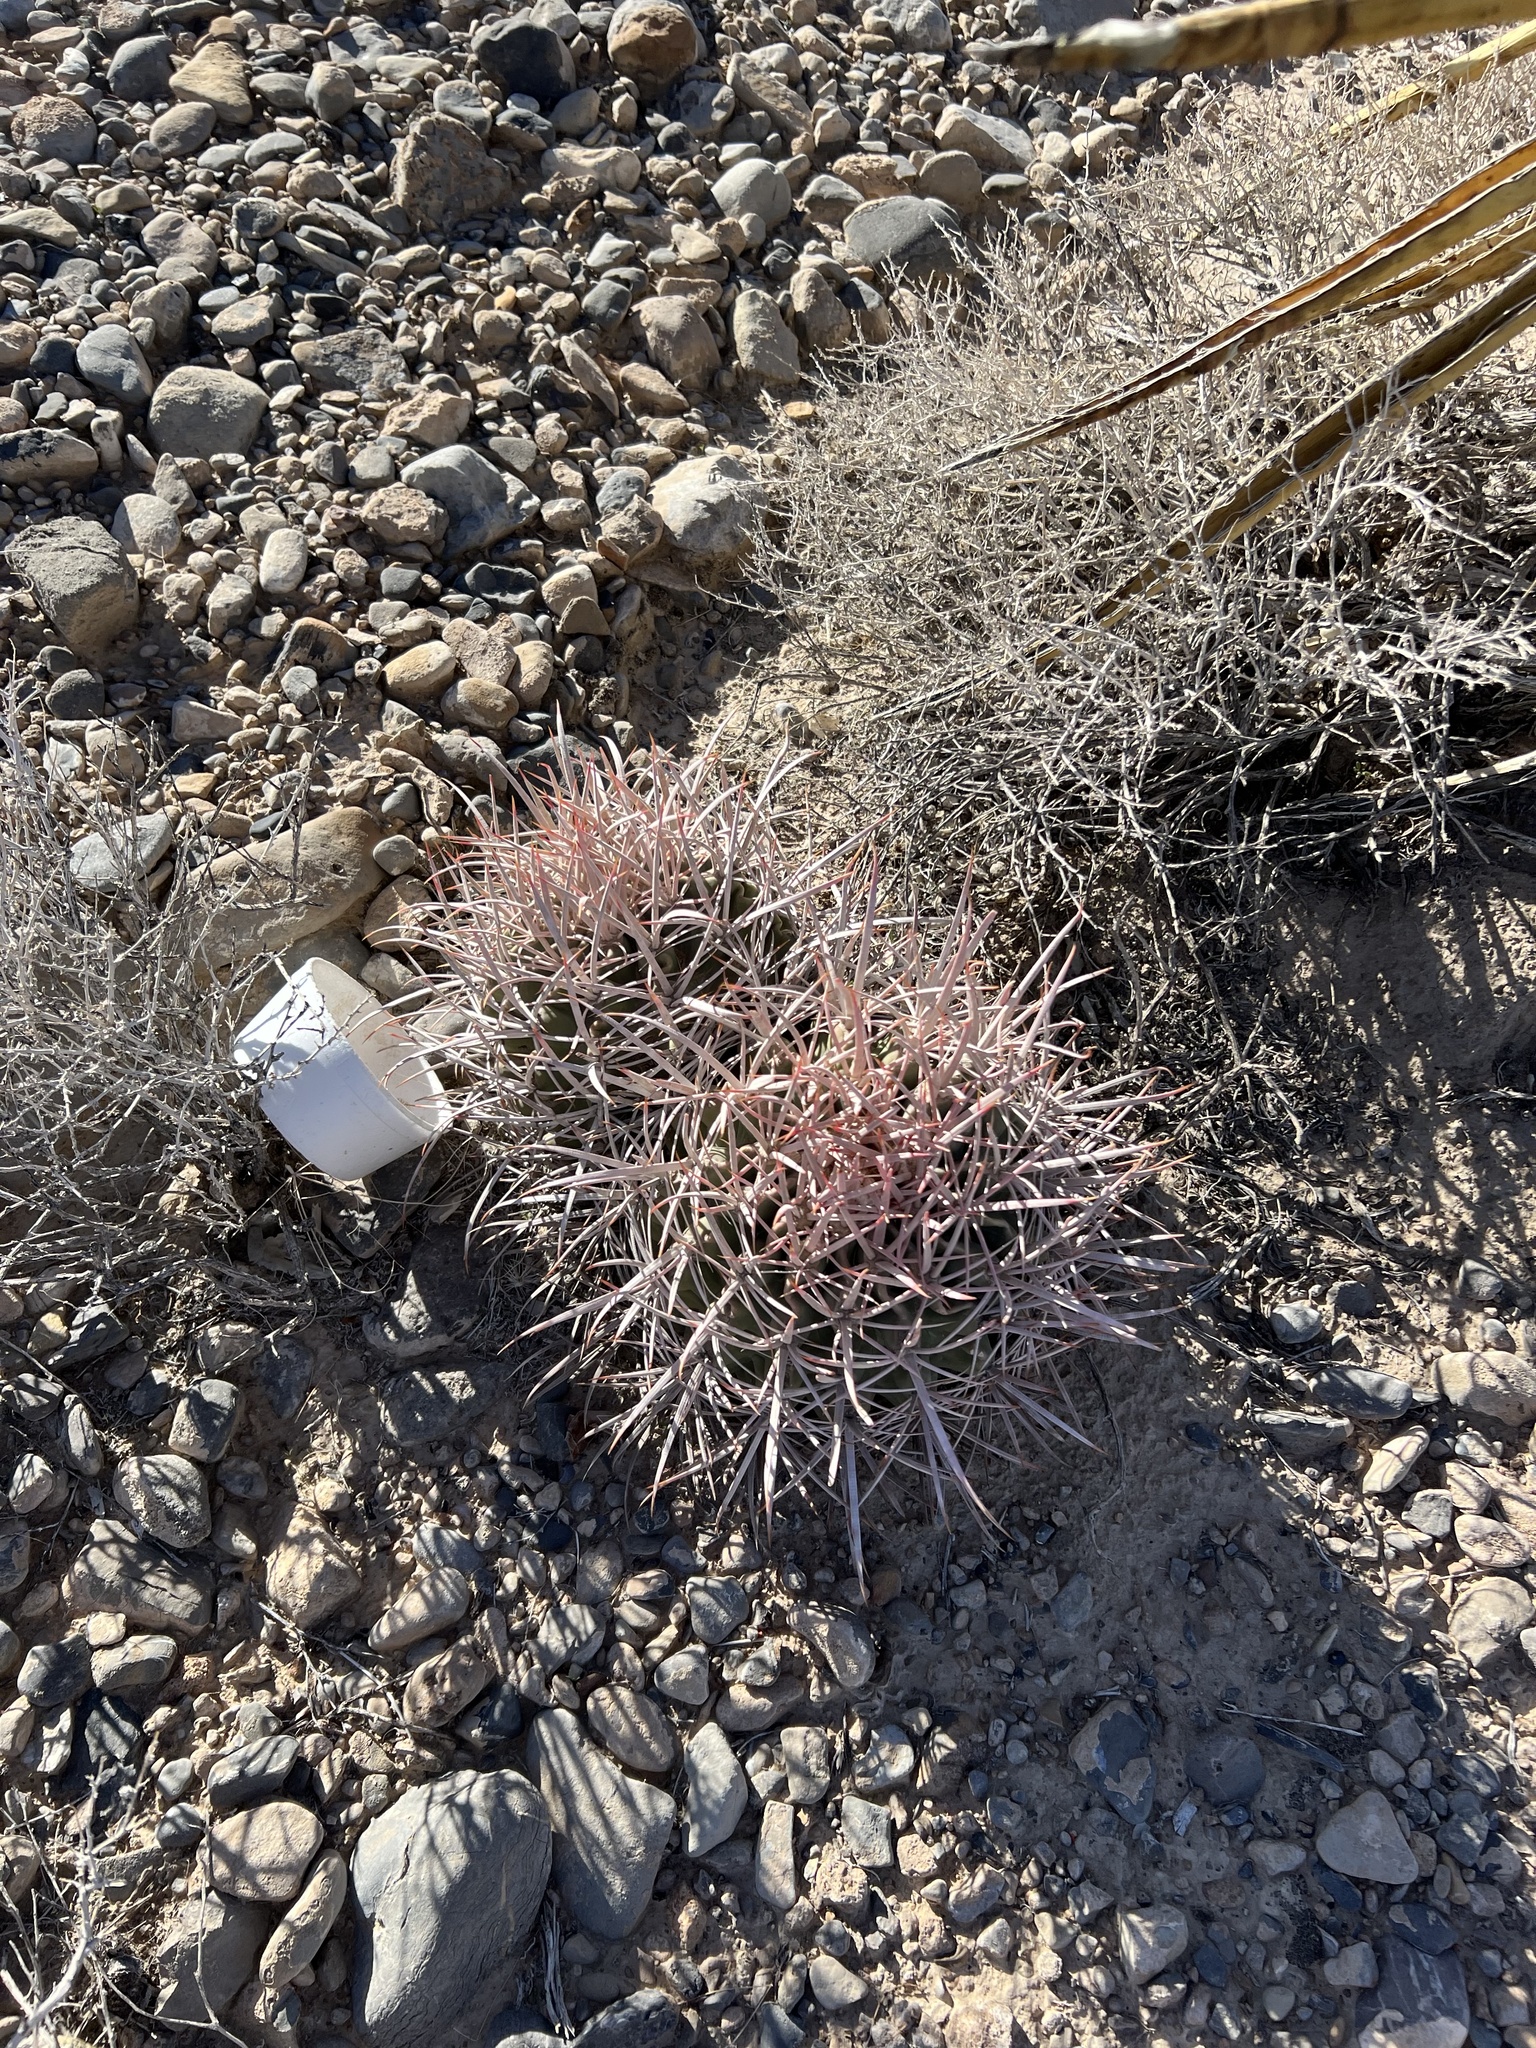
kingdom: Plantae
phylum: Tracheophyta
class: Magnoliopsida
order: Caryophyllales
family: Cactaceae
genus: Echinocactus
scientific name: Echinocactus polycephalus
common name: Cottontop cactus
